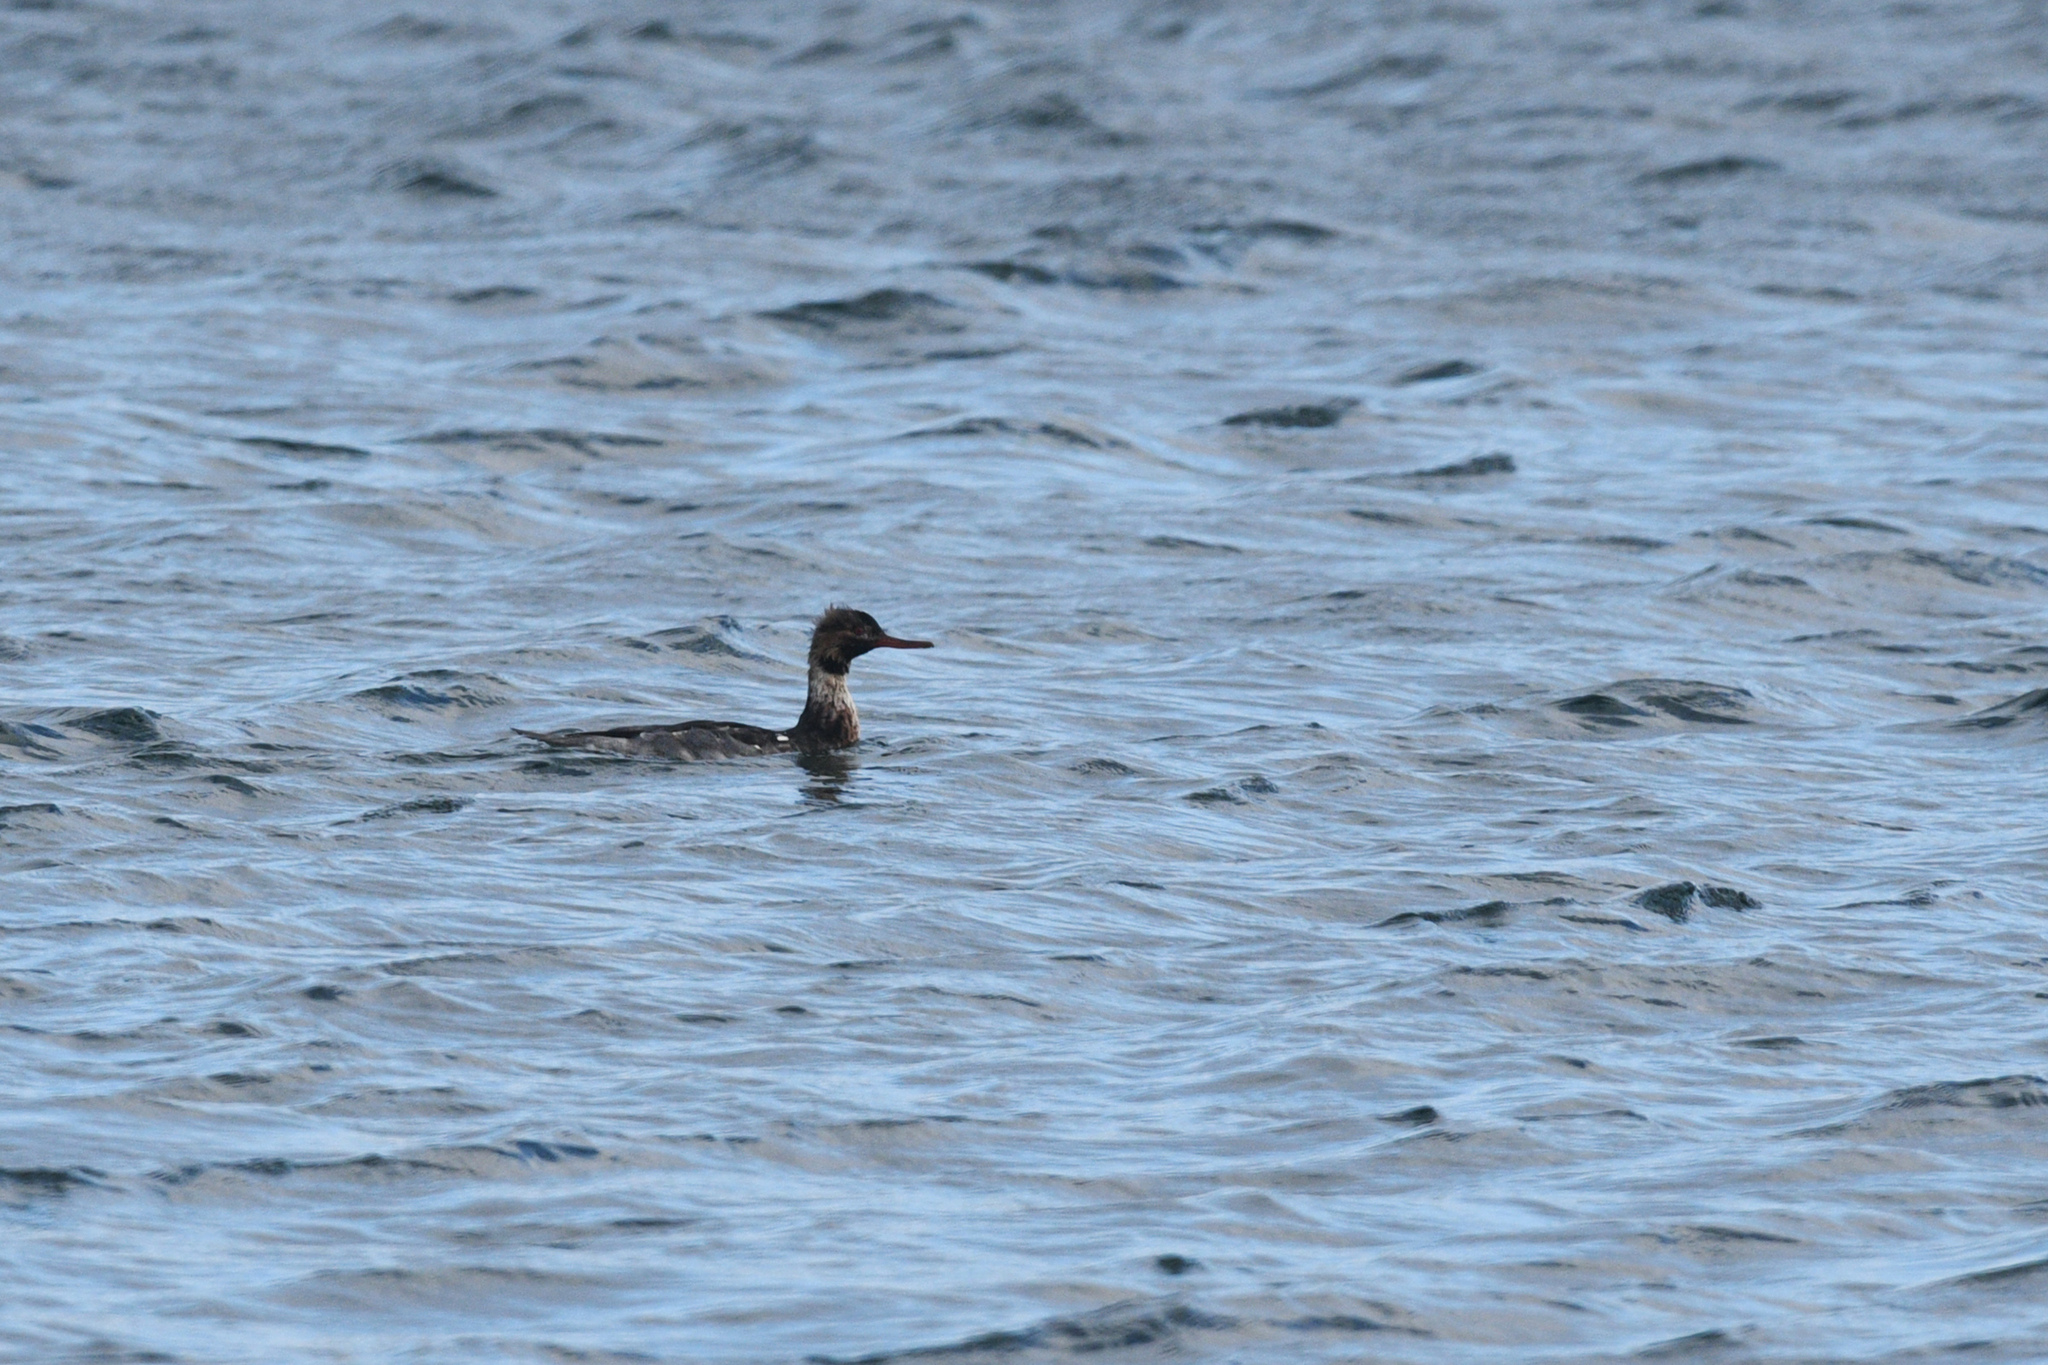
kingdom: Animalia
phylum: Chordata
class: Aves
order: Anseriformes
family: Anatidae
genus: Mergus
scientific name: Mergus serrator
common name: Red-breasted merganser
